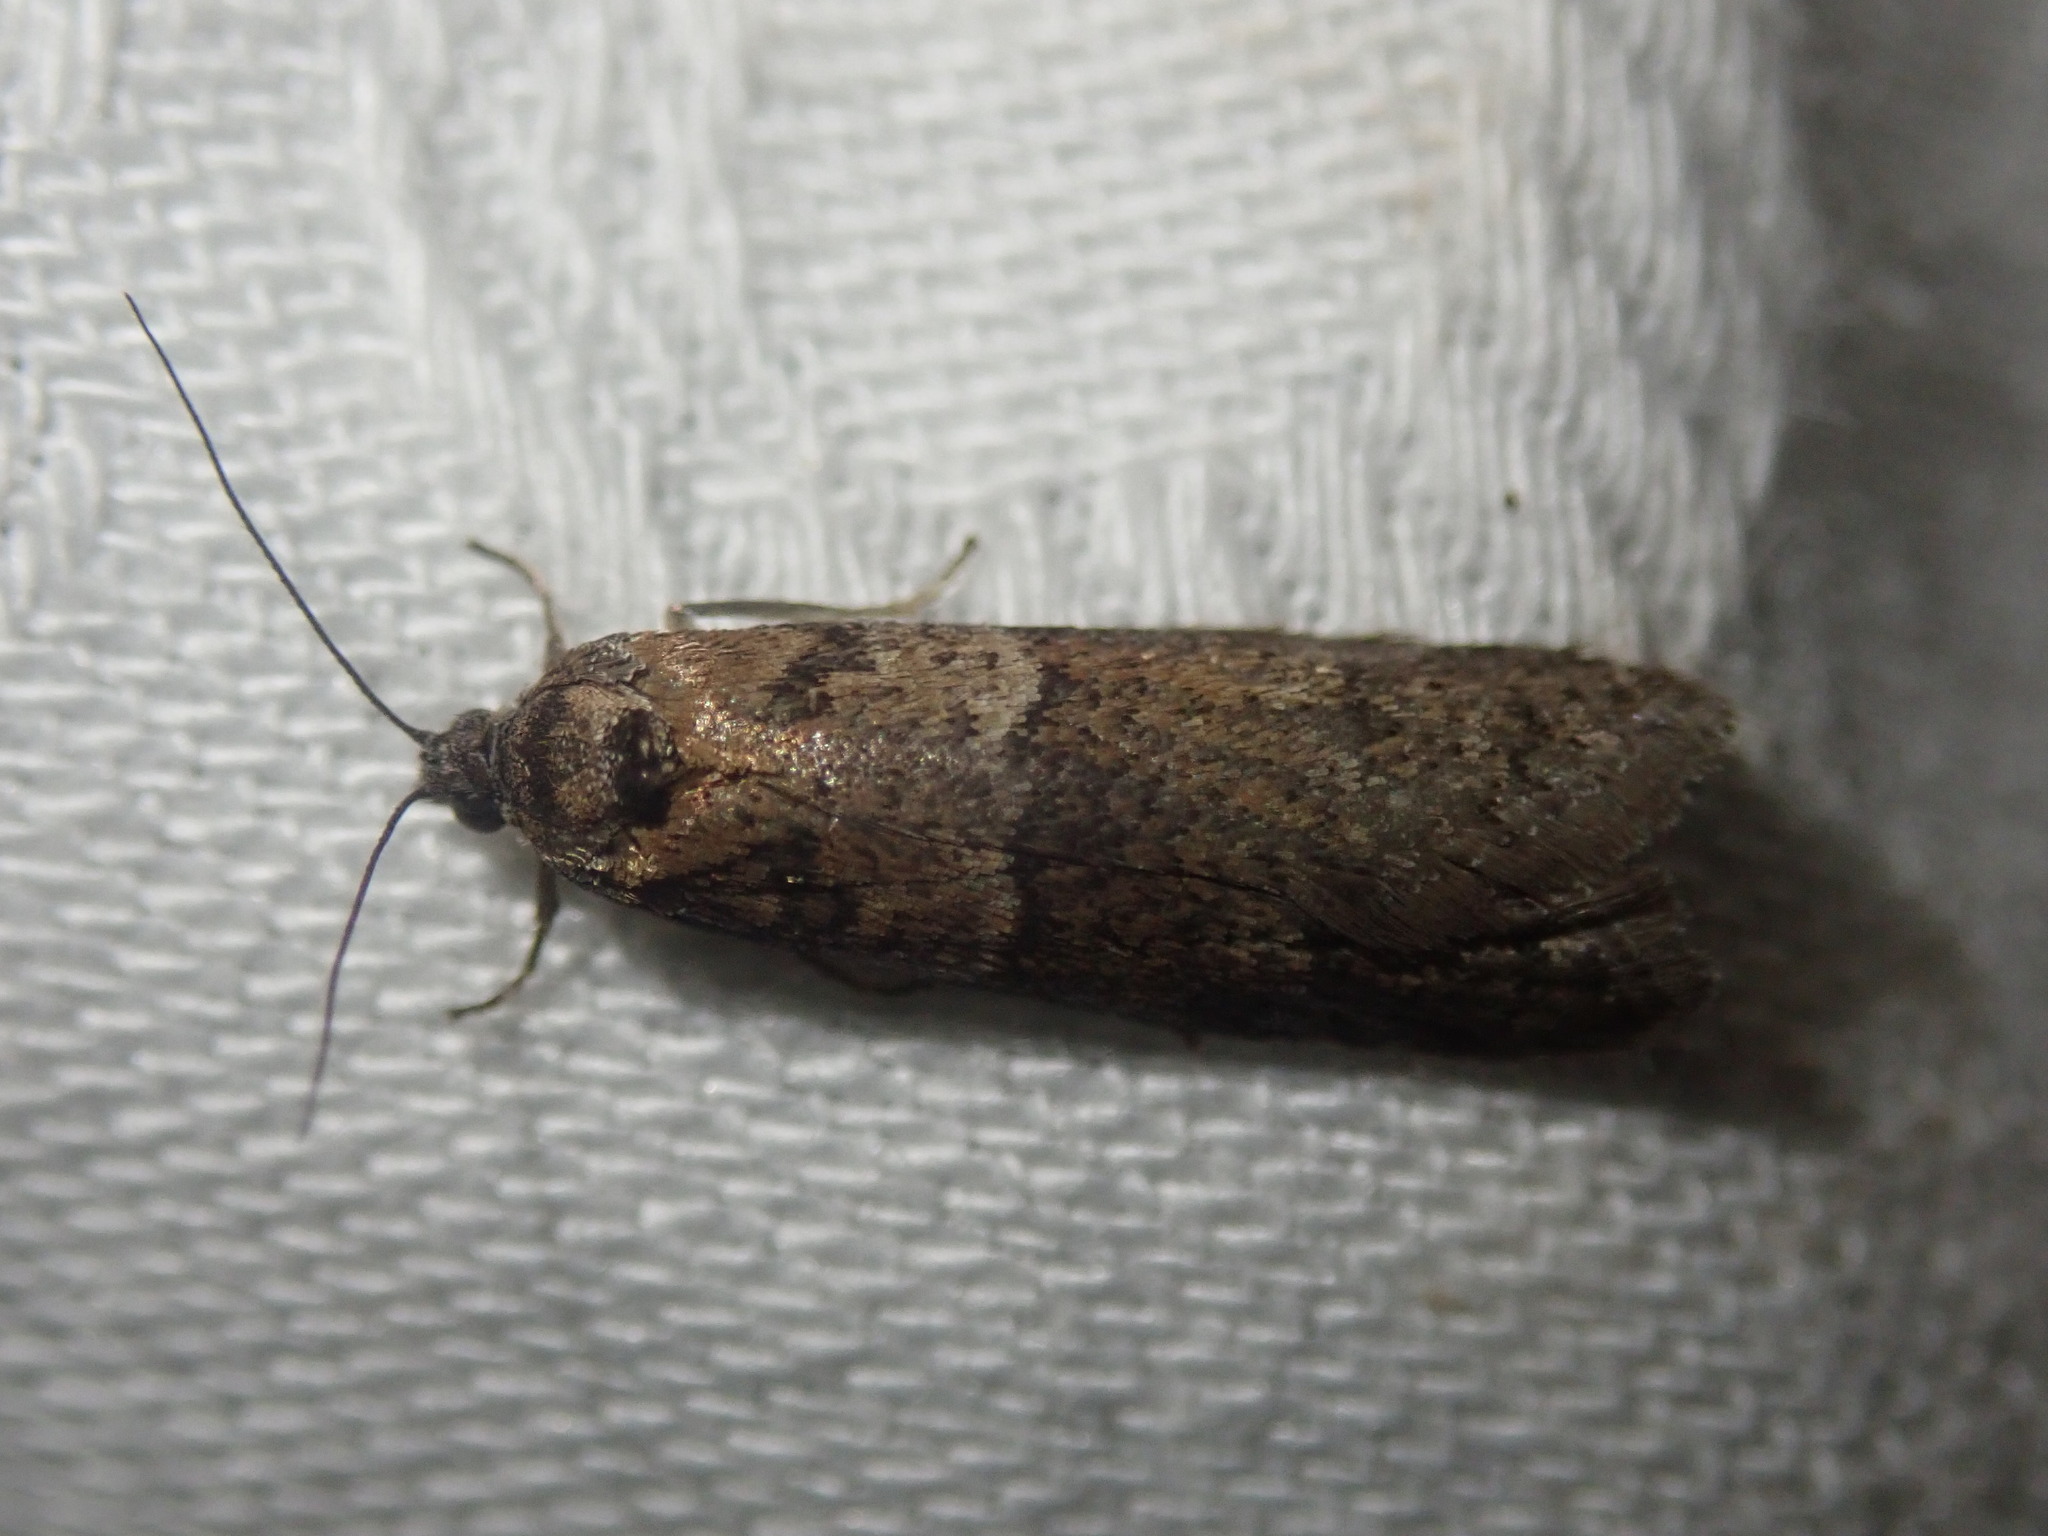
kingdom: Animalia
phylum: Arthropoda
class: Insecta
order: Lepidoptera
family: Tortricidae
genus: Tortricodes
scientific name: Tortricodes alternella
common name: Winter shade
